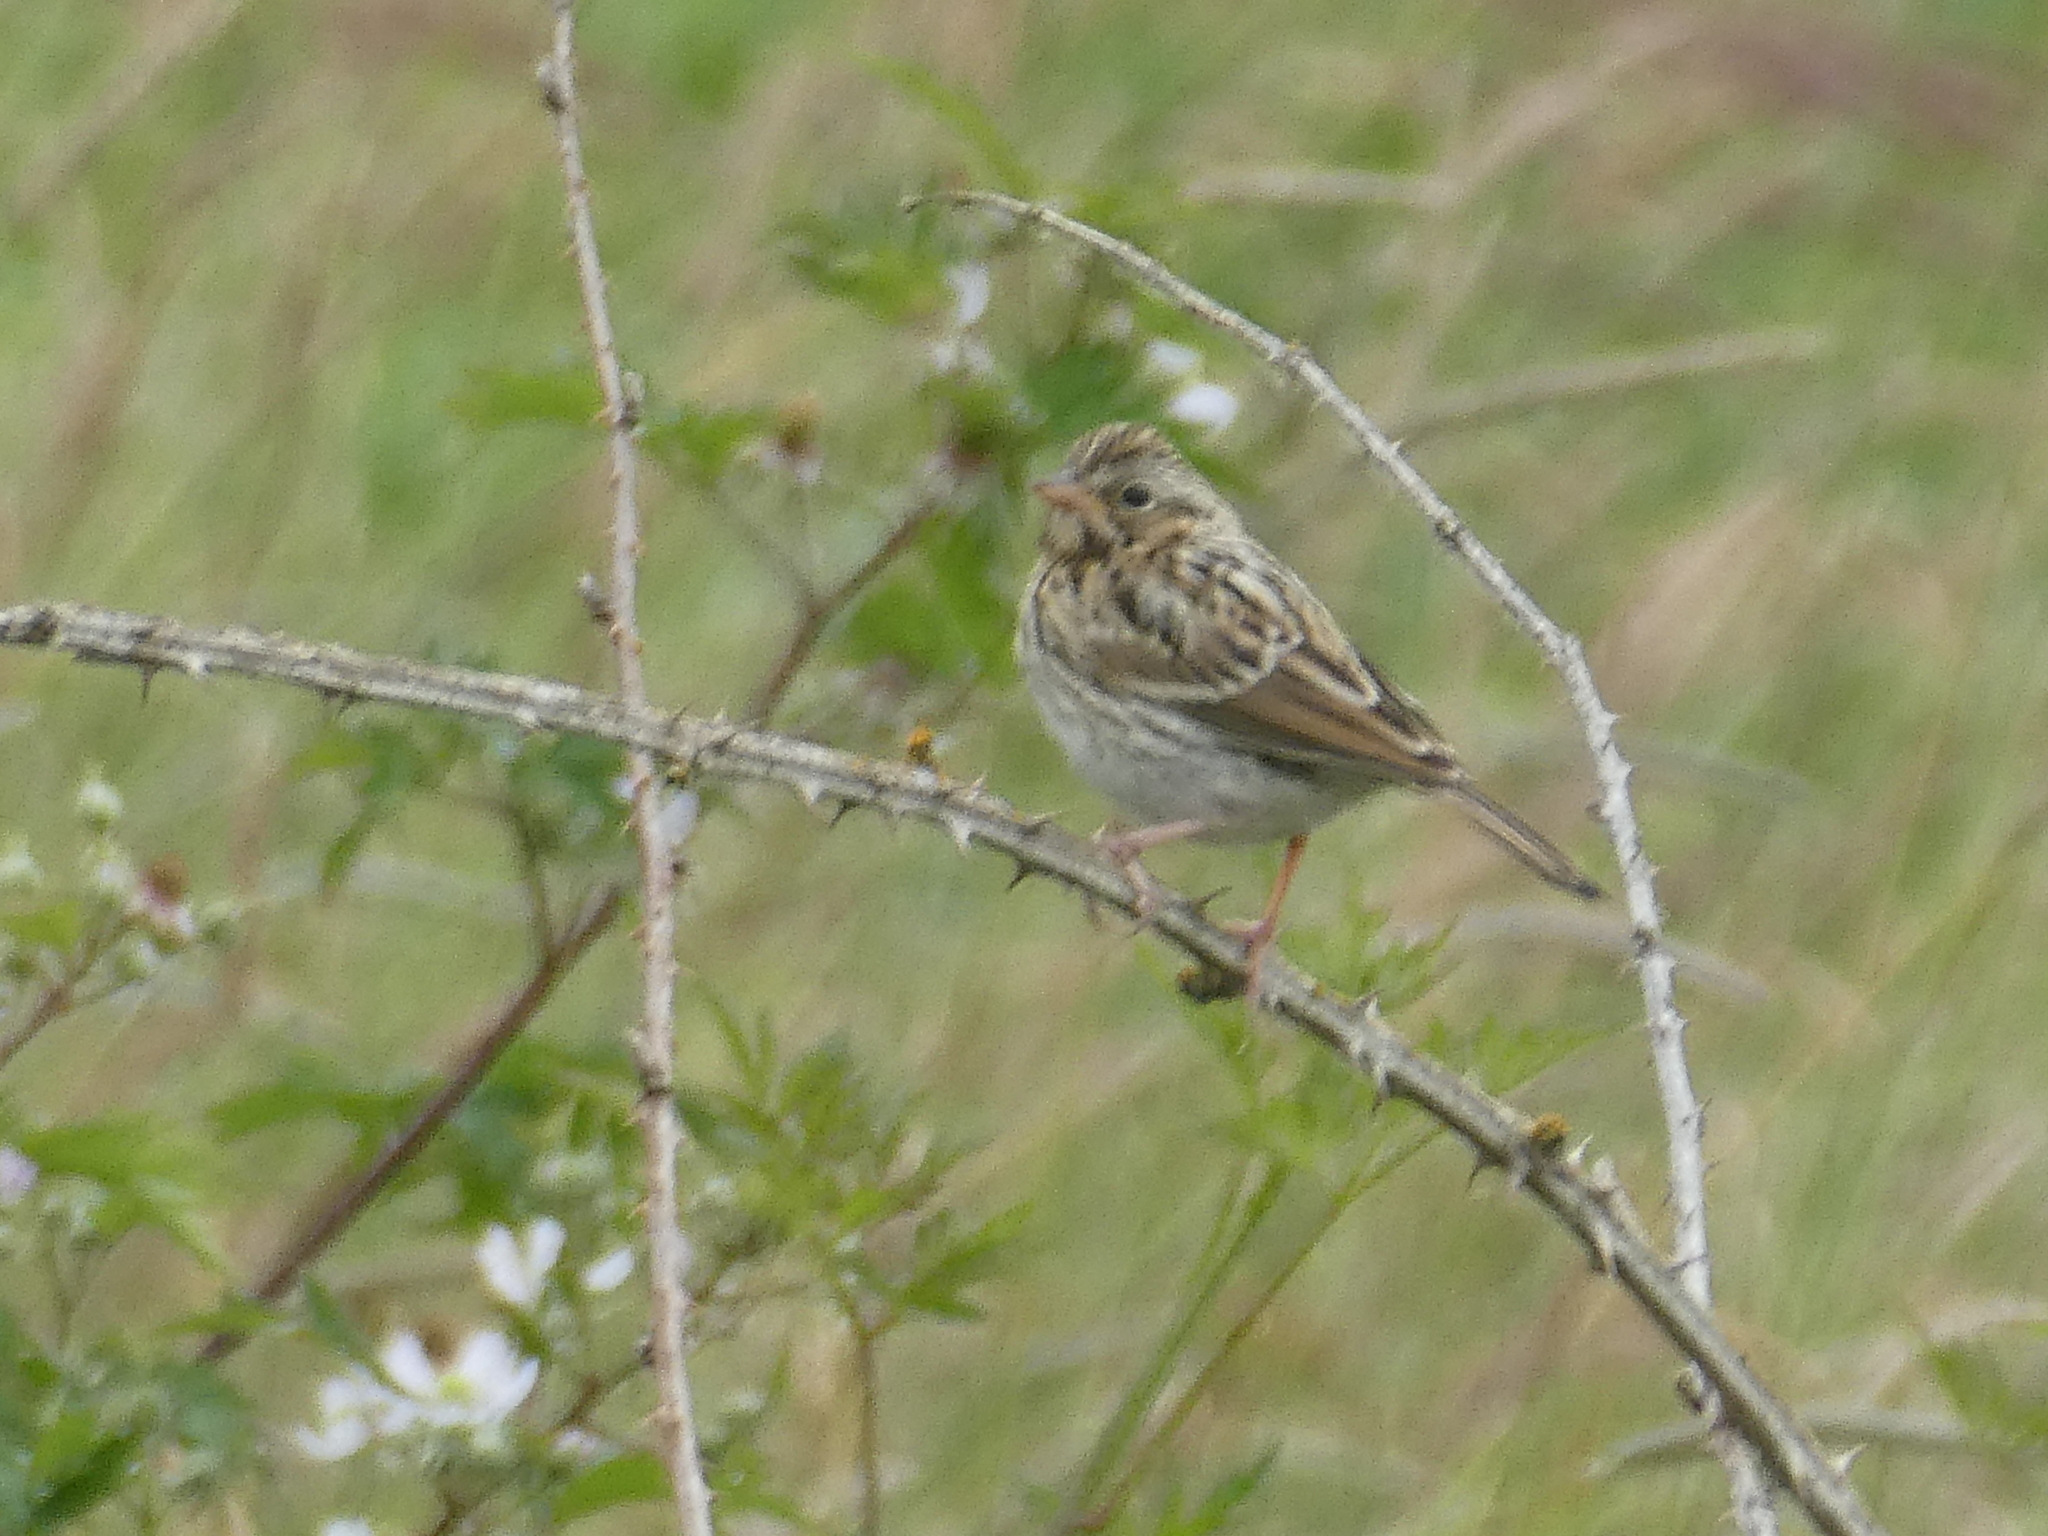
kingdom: Animalia
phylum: Chordata
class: Aves
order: Passeriformes
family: Passerellidae
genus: Passerculus
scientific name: Passerculus sandwichensis
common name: Savannah sparrow
